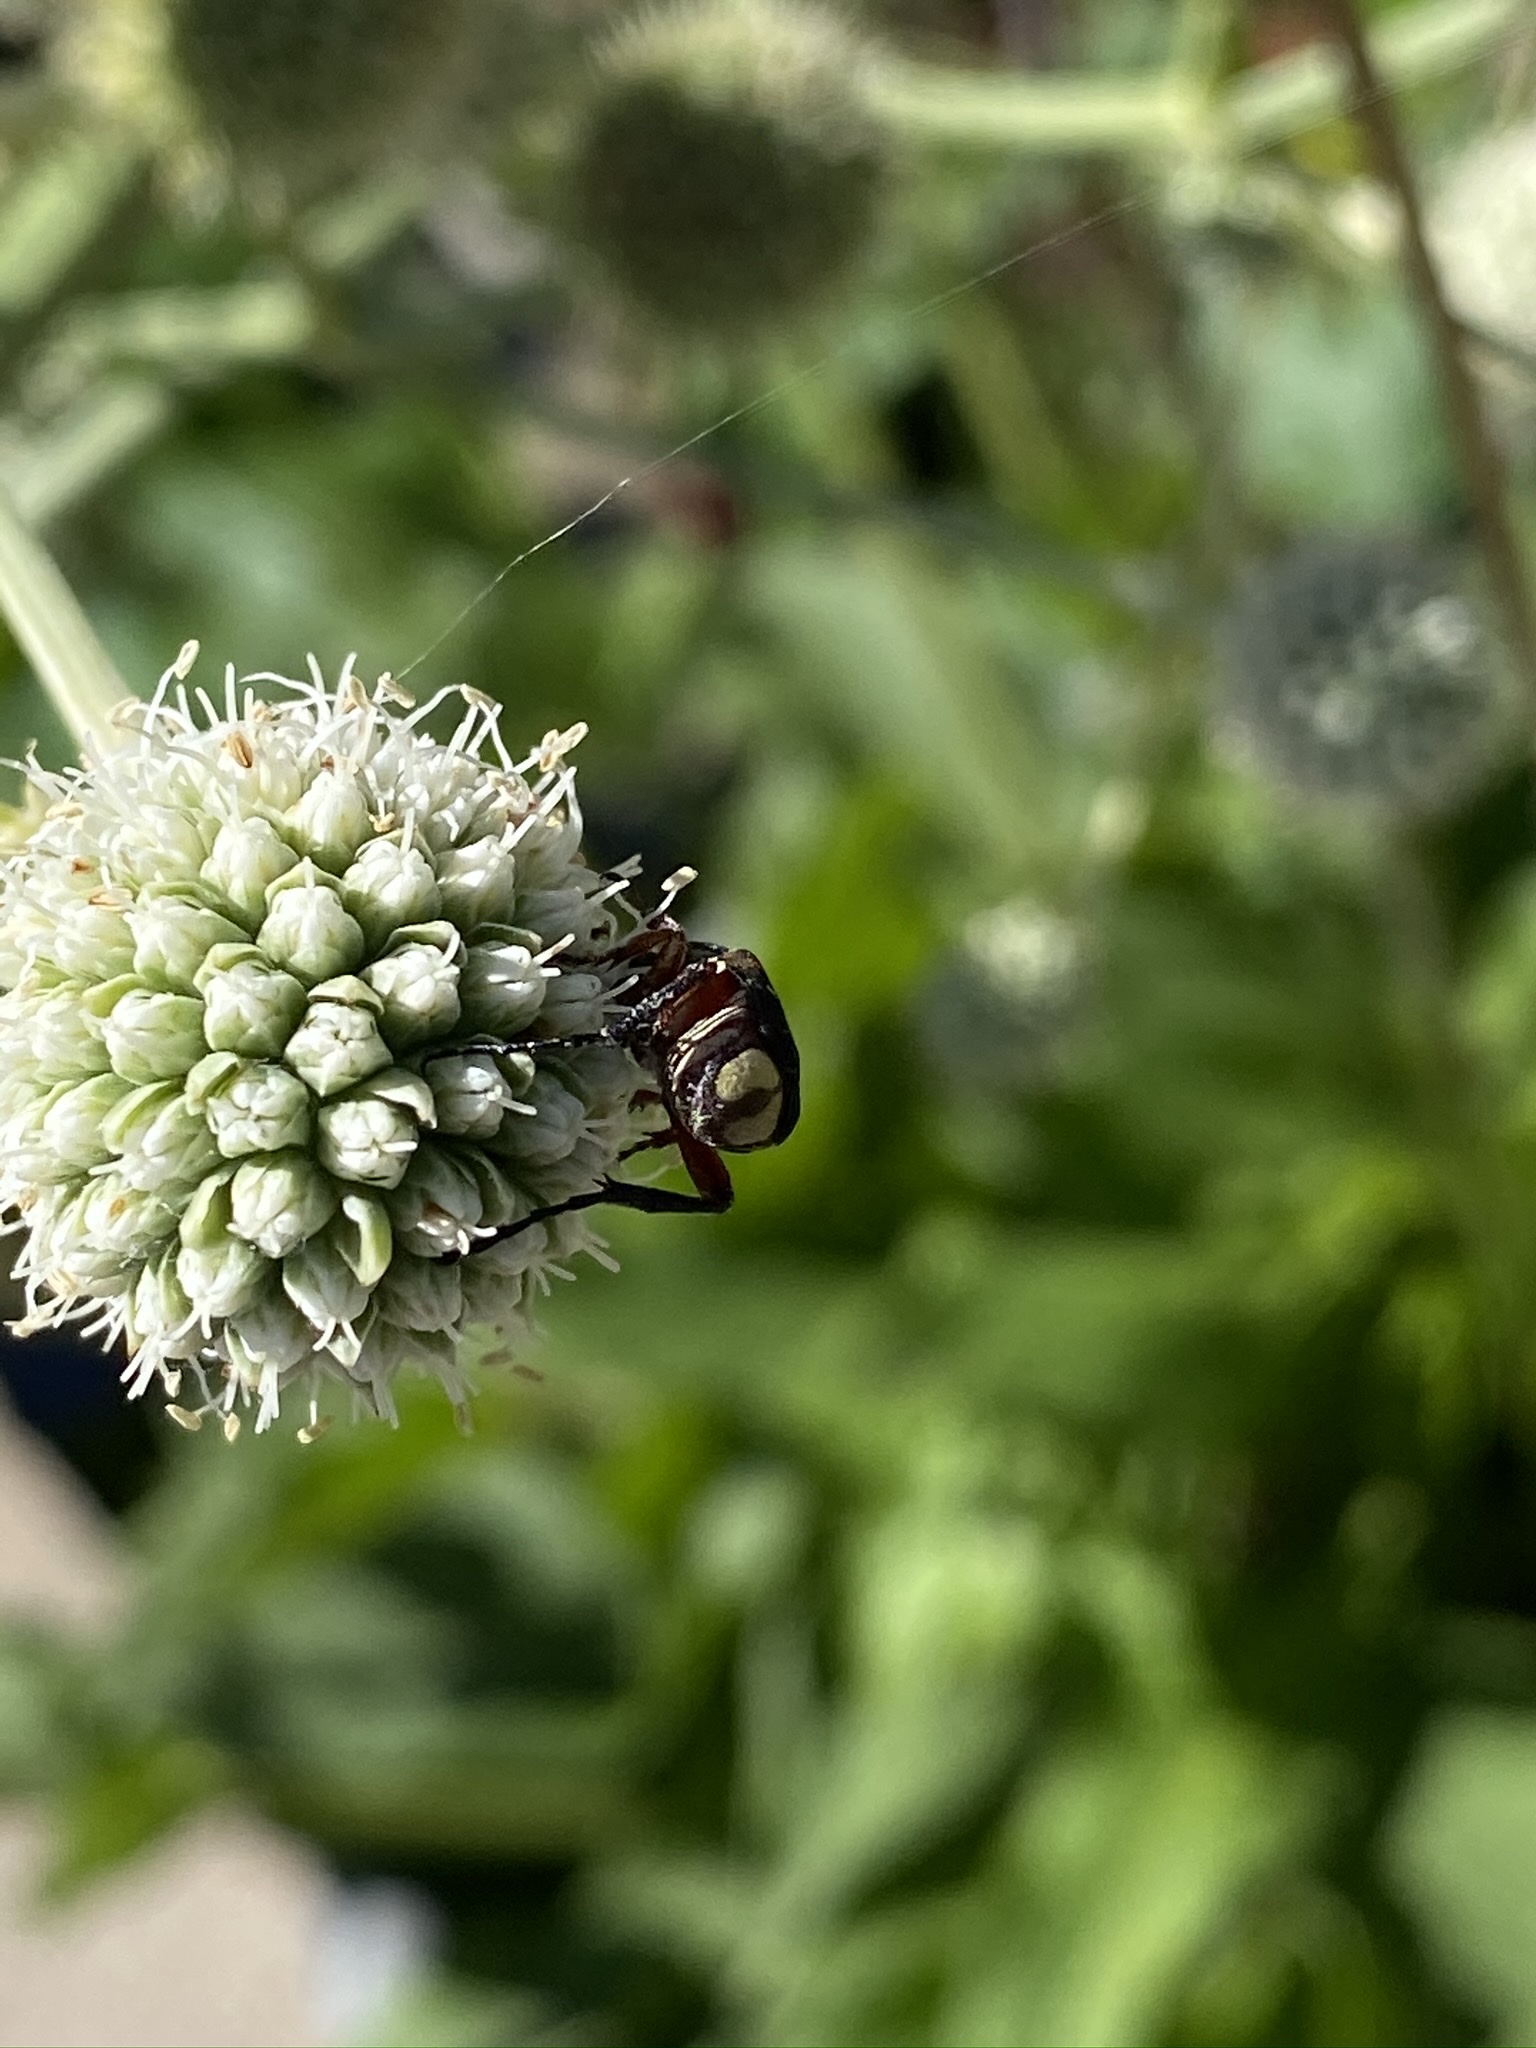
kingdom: Animalia
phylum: Arthropoda
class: Insecta
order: Coleoptera
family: Scarabaeidae
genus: Trigonopeltastes
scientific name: Trigonopeltastes delta
